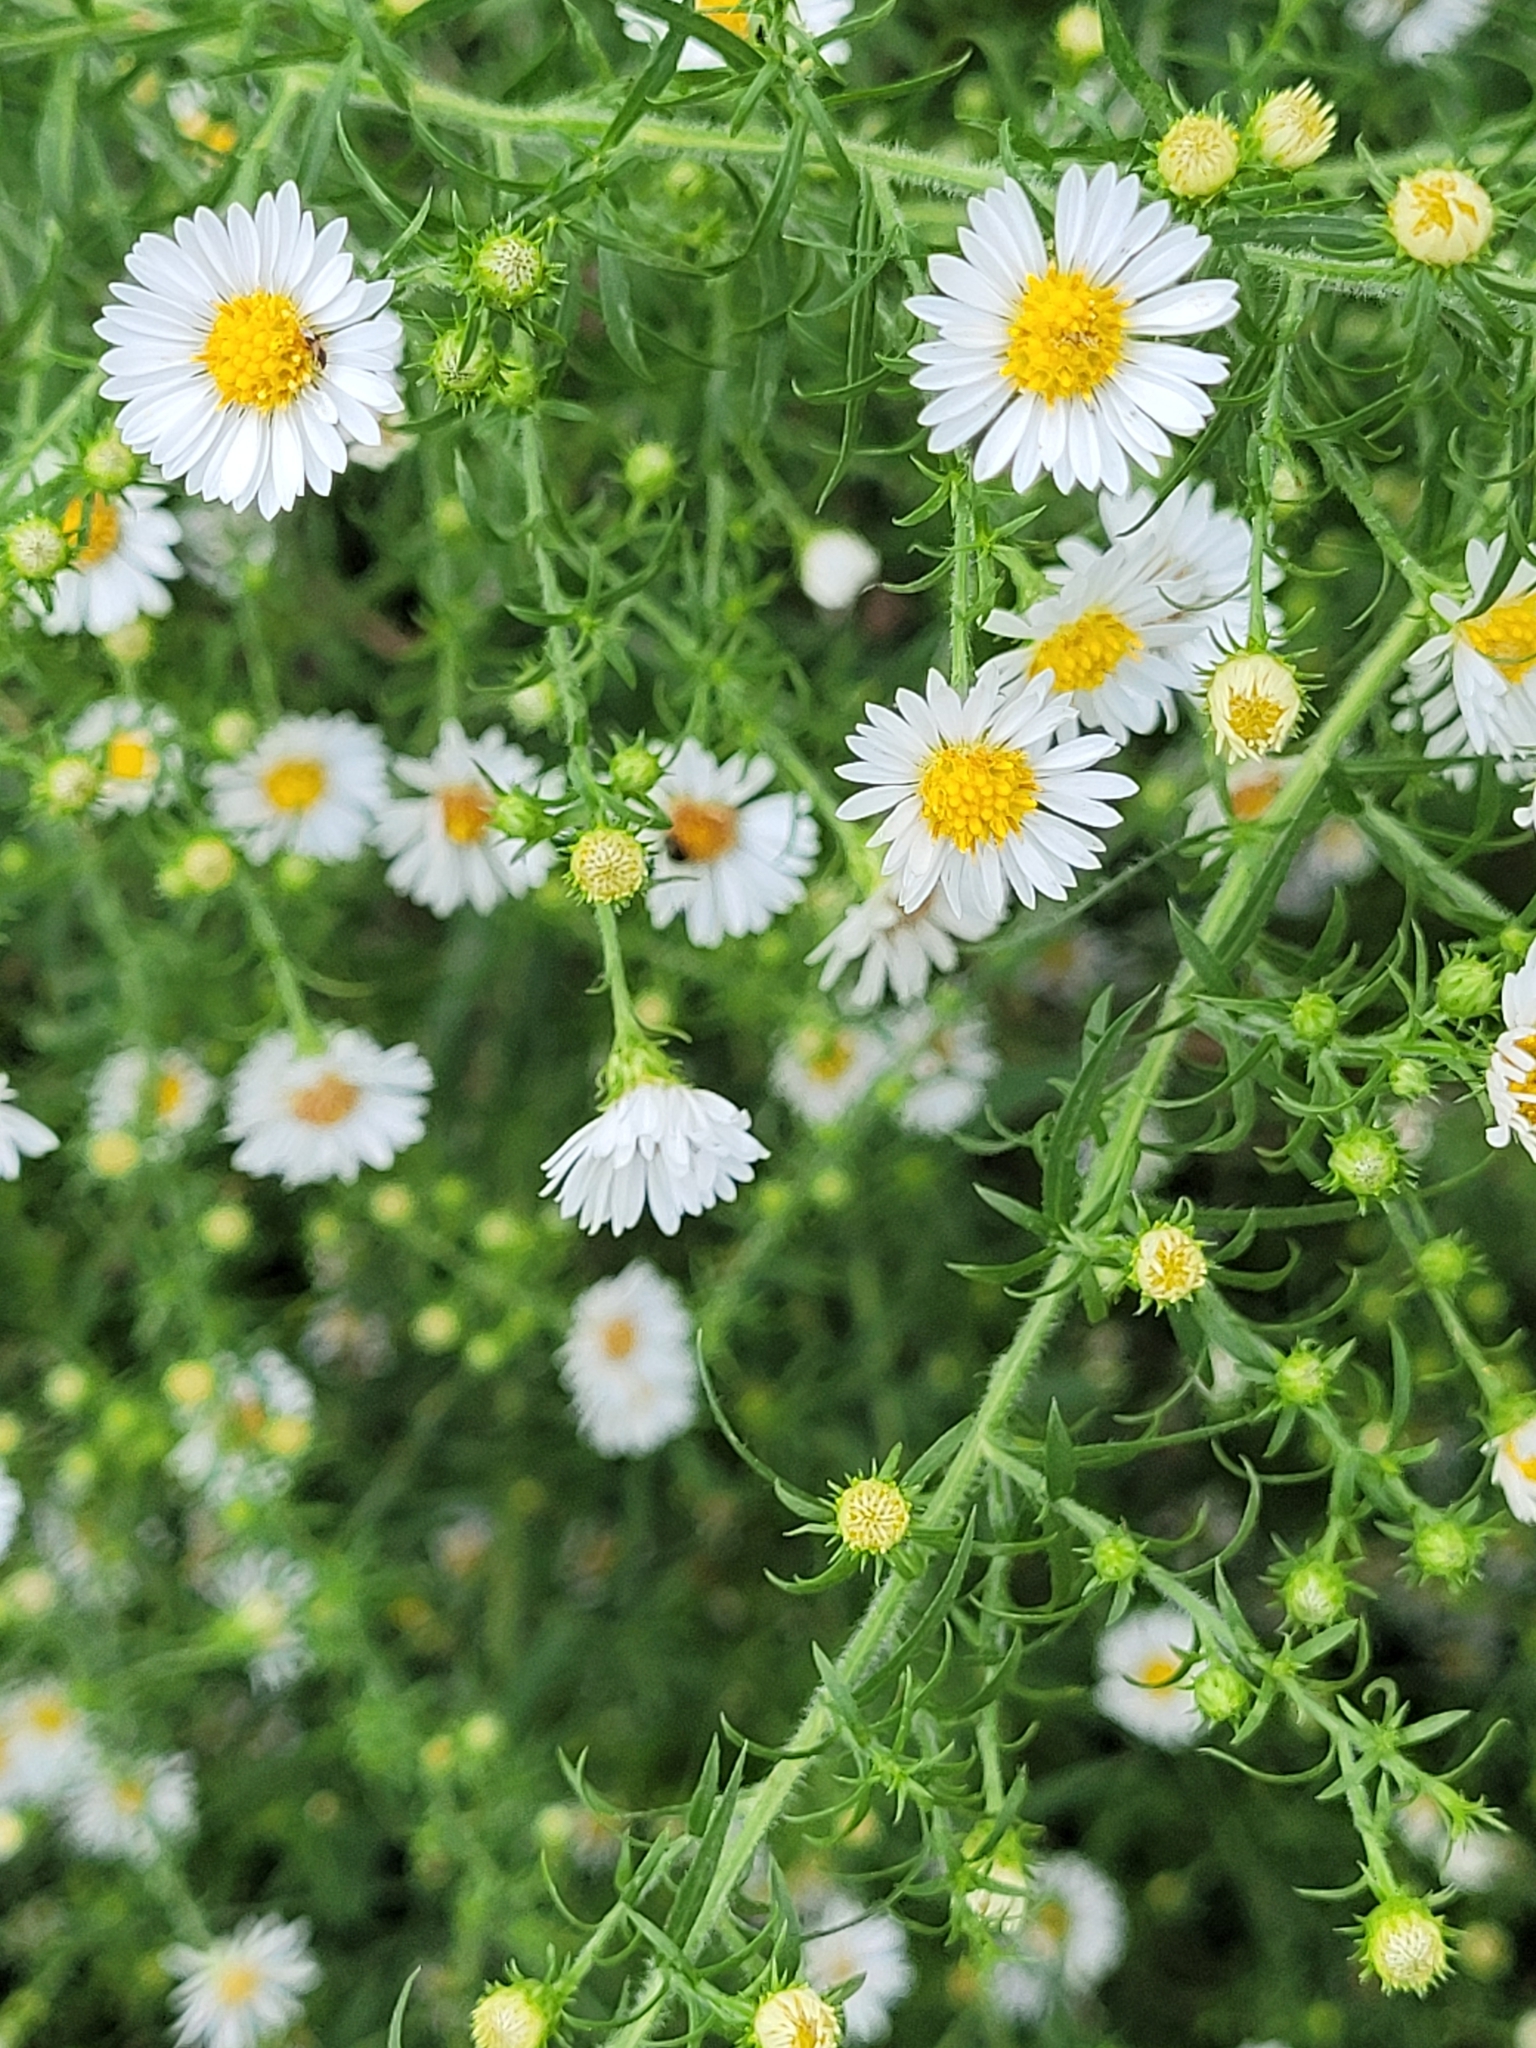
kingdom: Plantae
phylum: Tracheophyta
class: Magnoliopsida
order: Asterales
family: Asteraceae
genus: Symphyotrichum
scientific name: Symphyotrichum pilosum
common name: Awl aster
